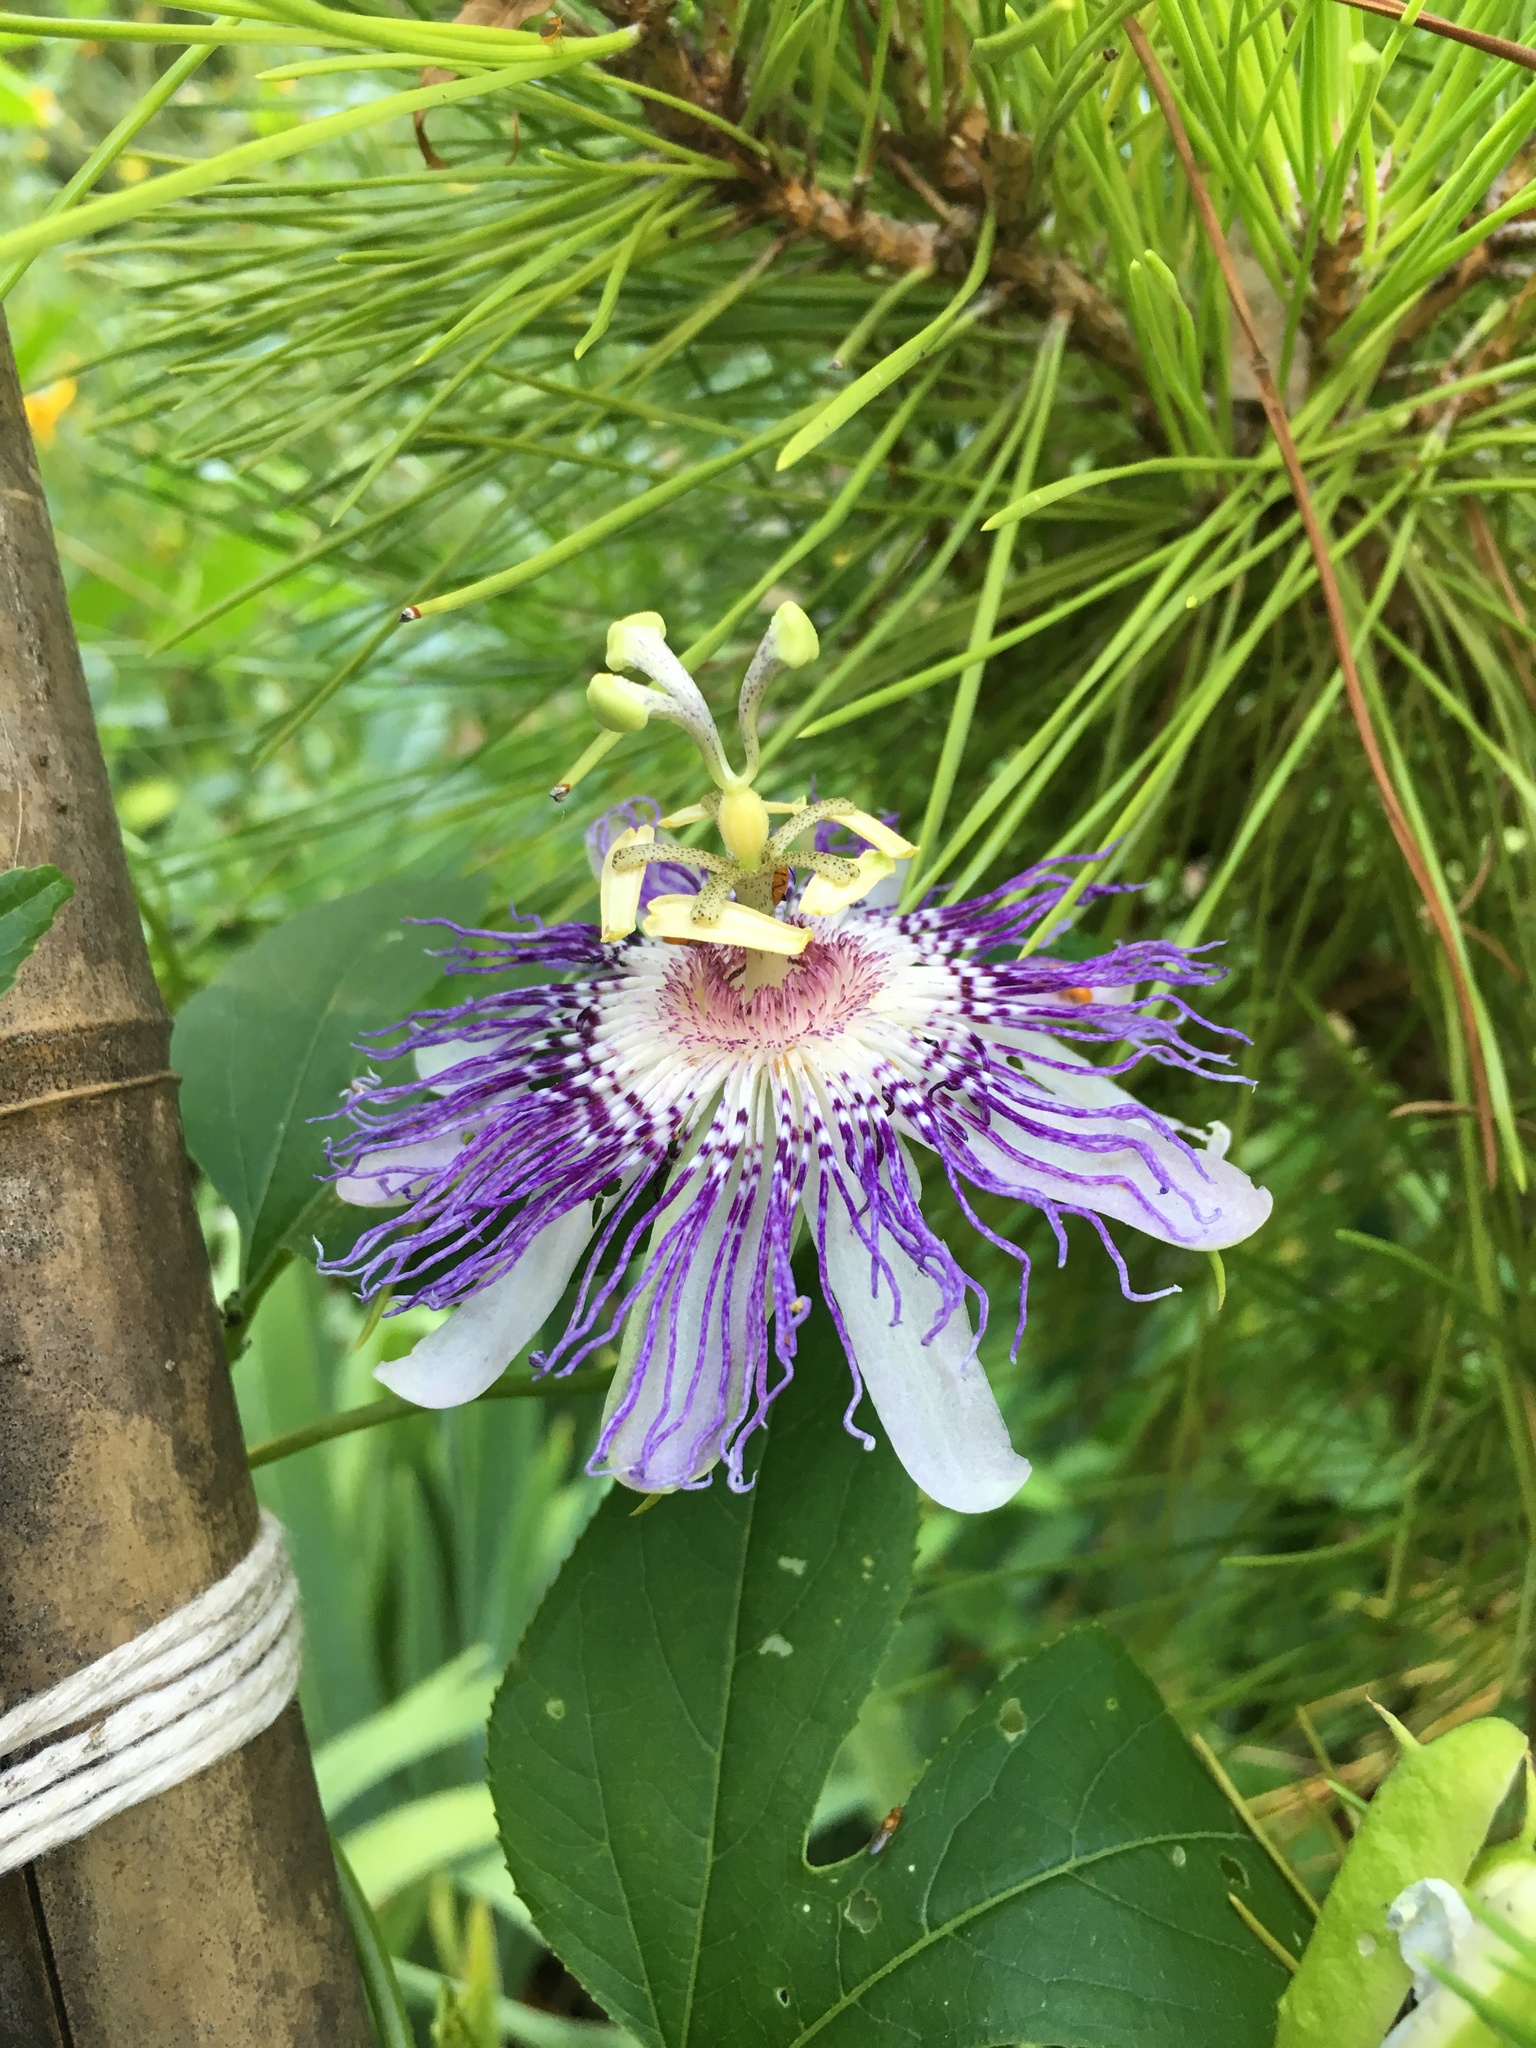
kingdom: Plantae
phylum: Tracheophyta
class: Magnoliopsida
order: Malpighiales
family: Passifloraceae
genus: Passiflora
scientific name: Passiflora incarnata
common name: Apricot-vine
